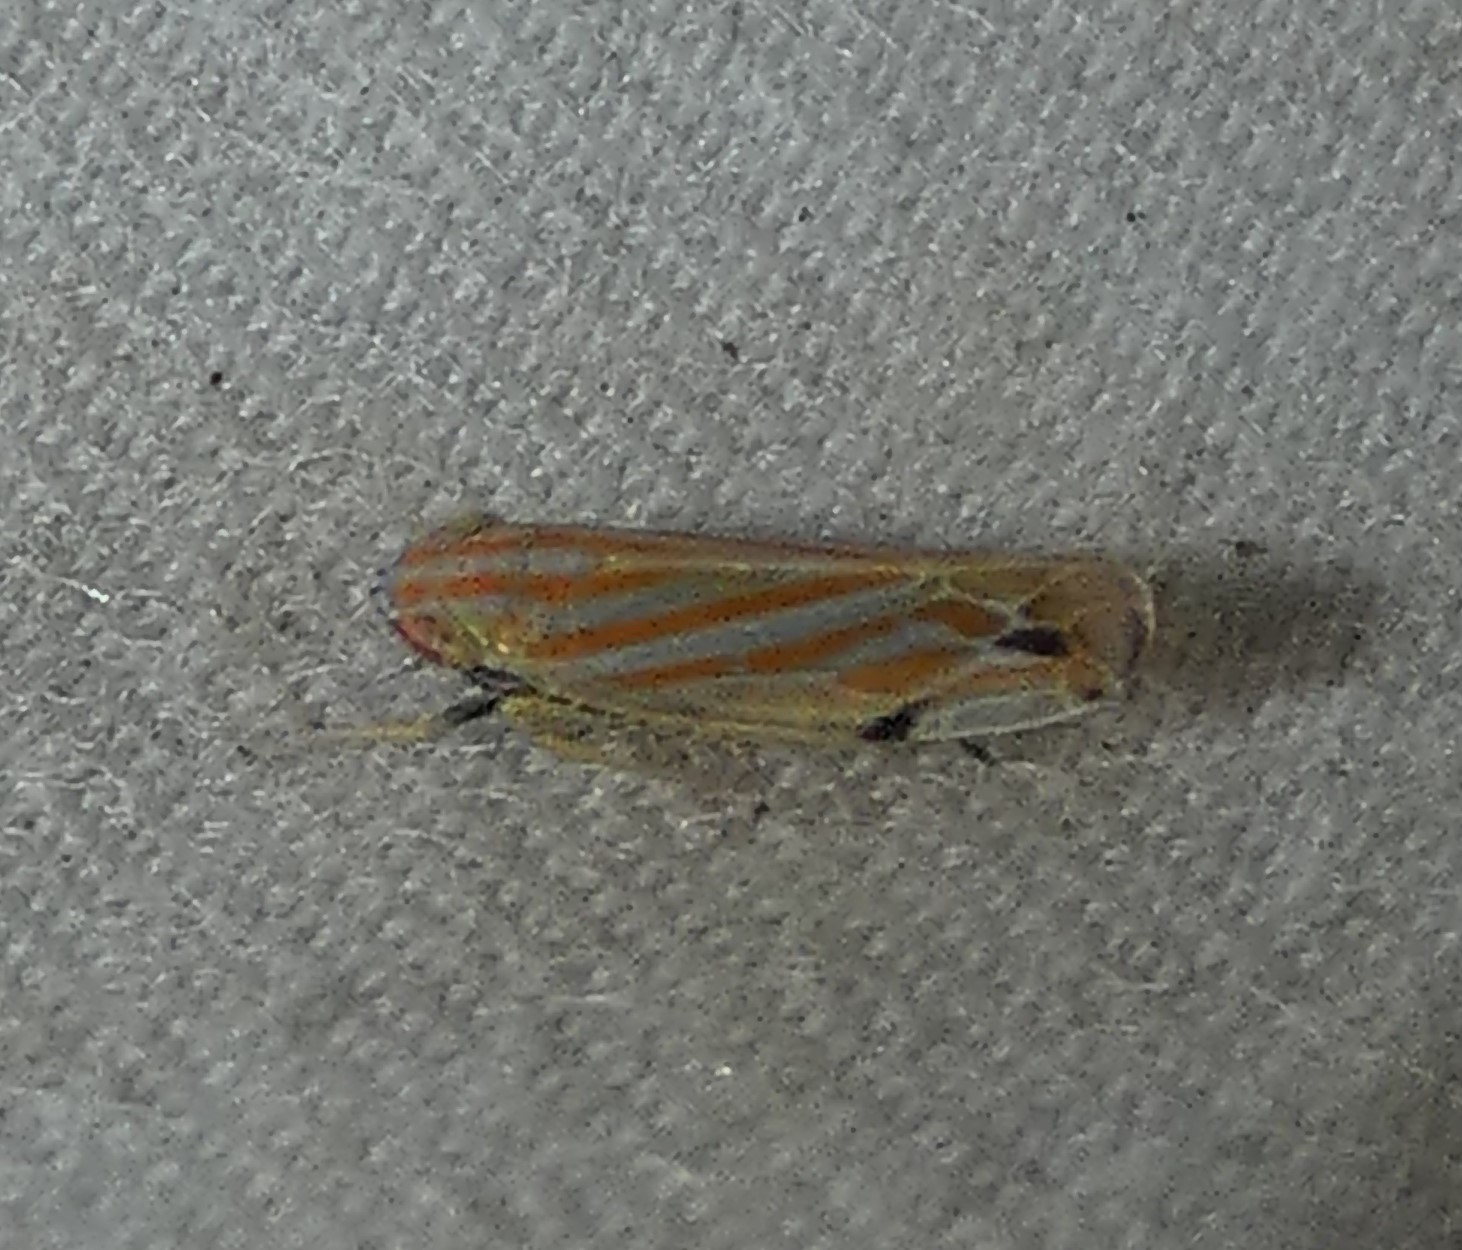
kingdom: Animalia
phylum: Arthropoda
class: Insecta
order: Hemiptera
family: Cicadellidae
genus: Deltanus
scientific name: Deltanus texanus
